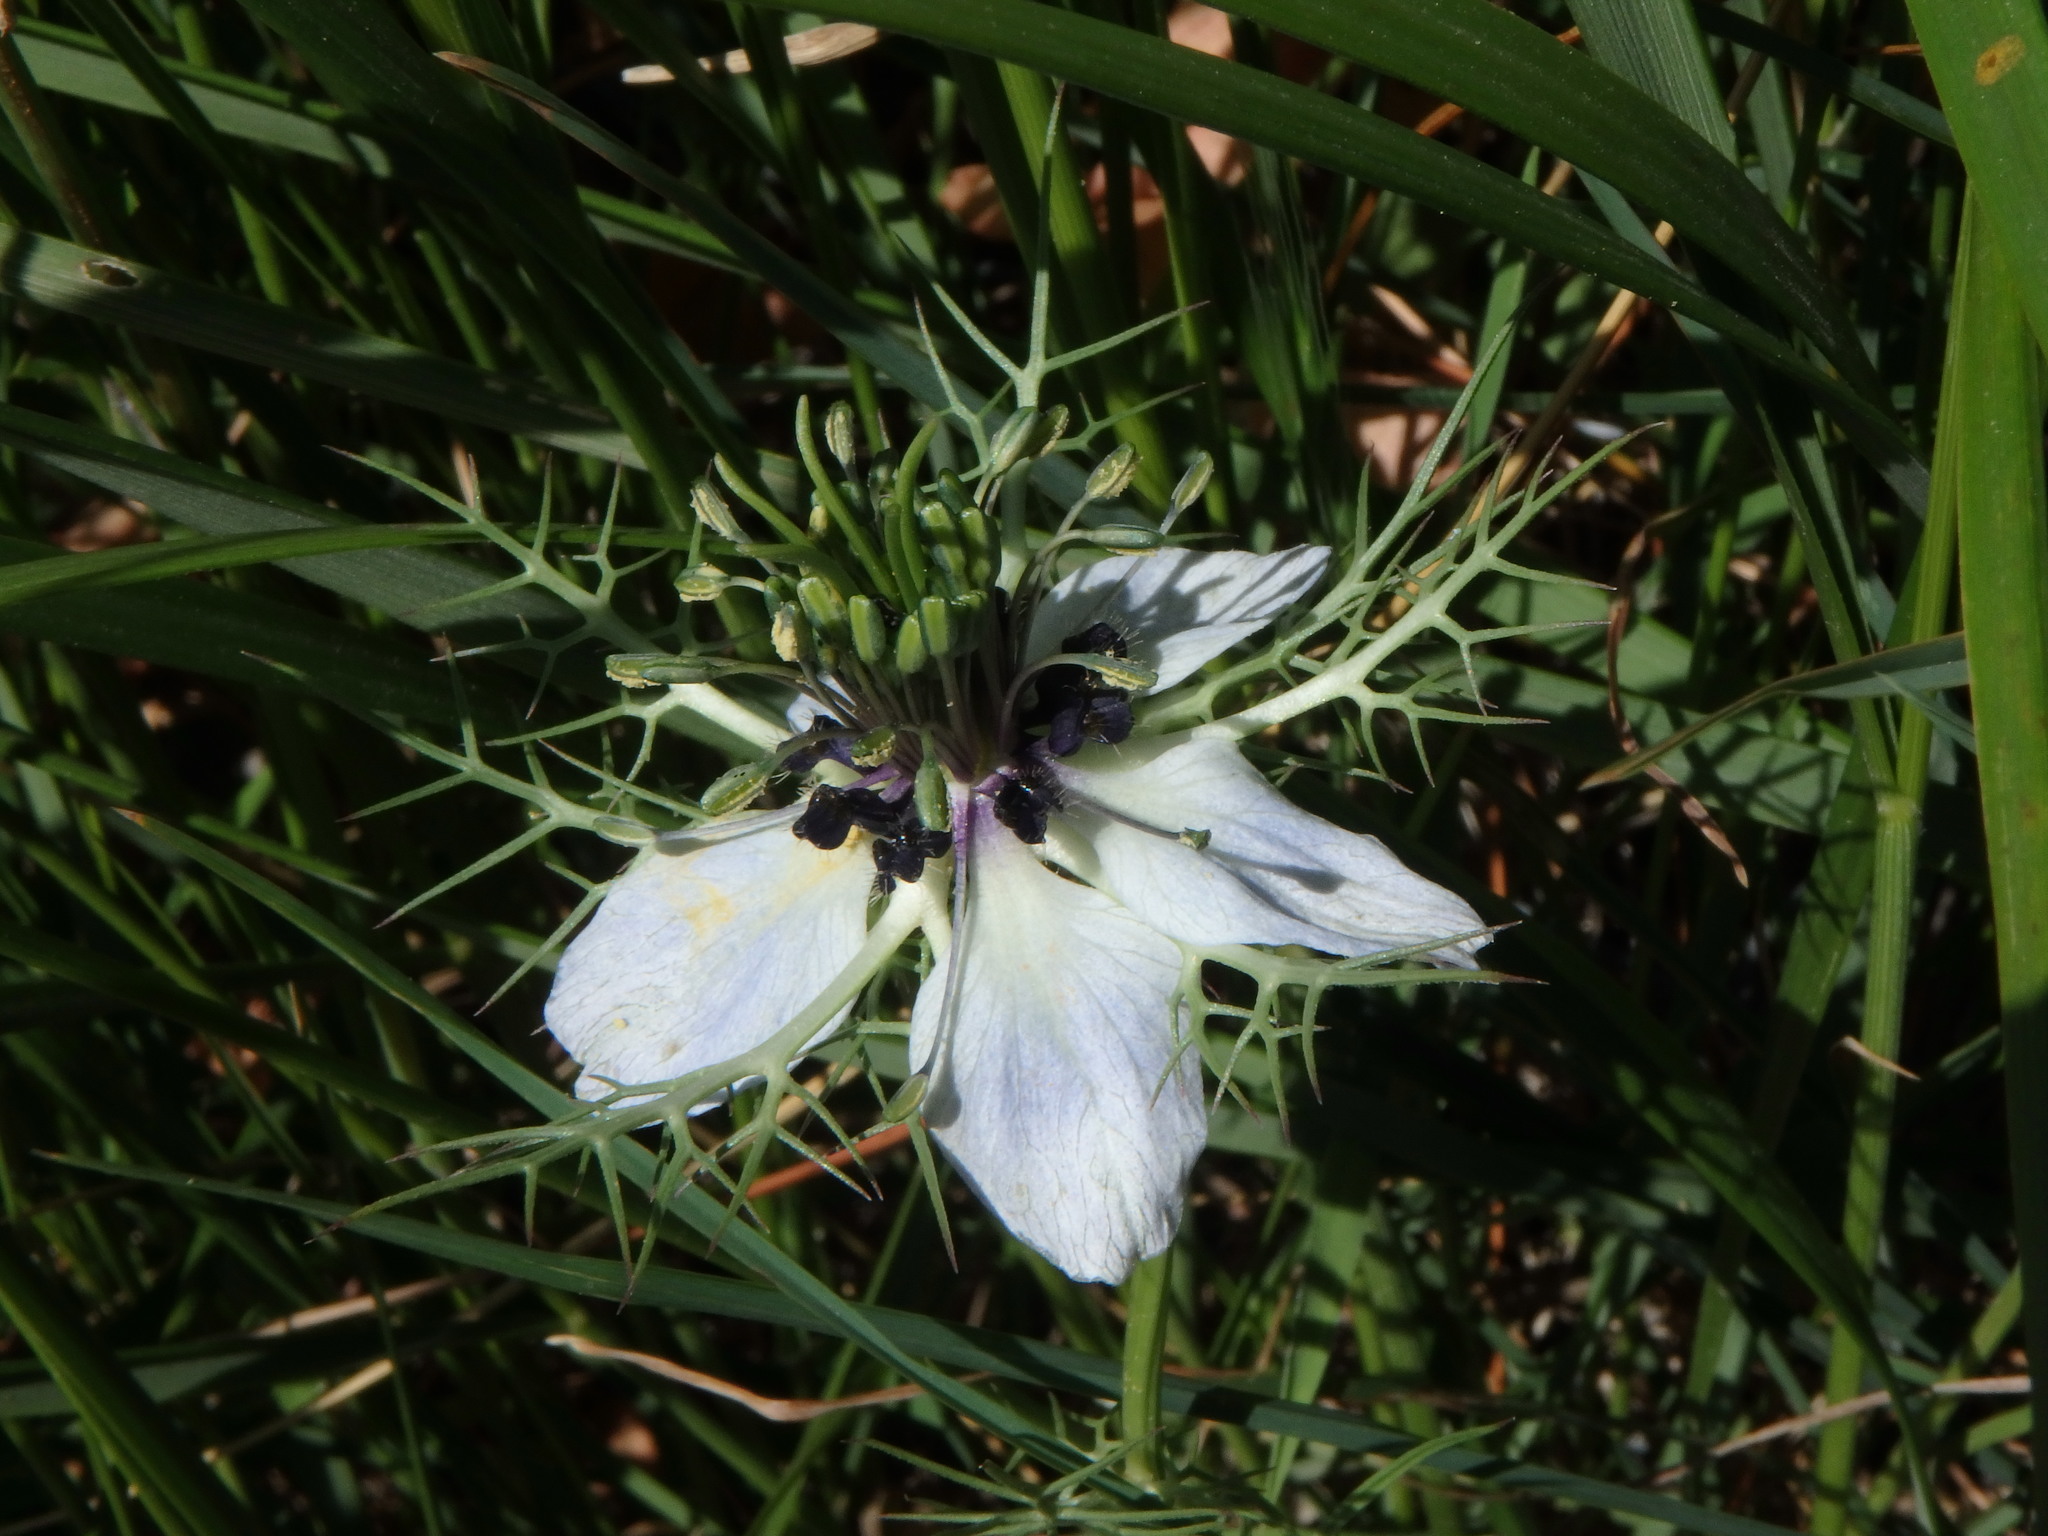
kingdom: Plantae
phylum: Tracheophyta
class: Magnoliopsida
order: Ranunculales
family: Ranunculaceae
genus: Nigella
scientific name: Nigella damascena
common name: Love-in-a-mist
